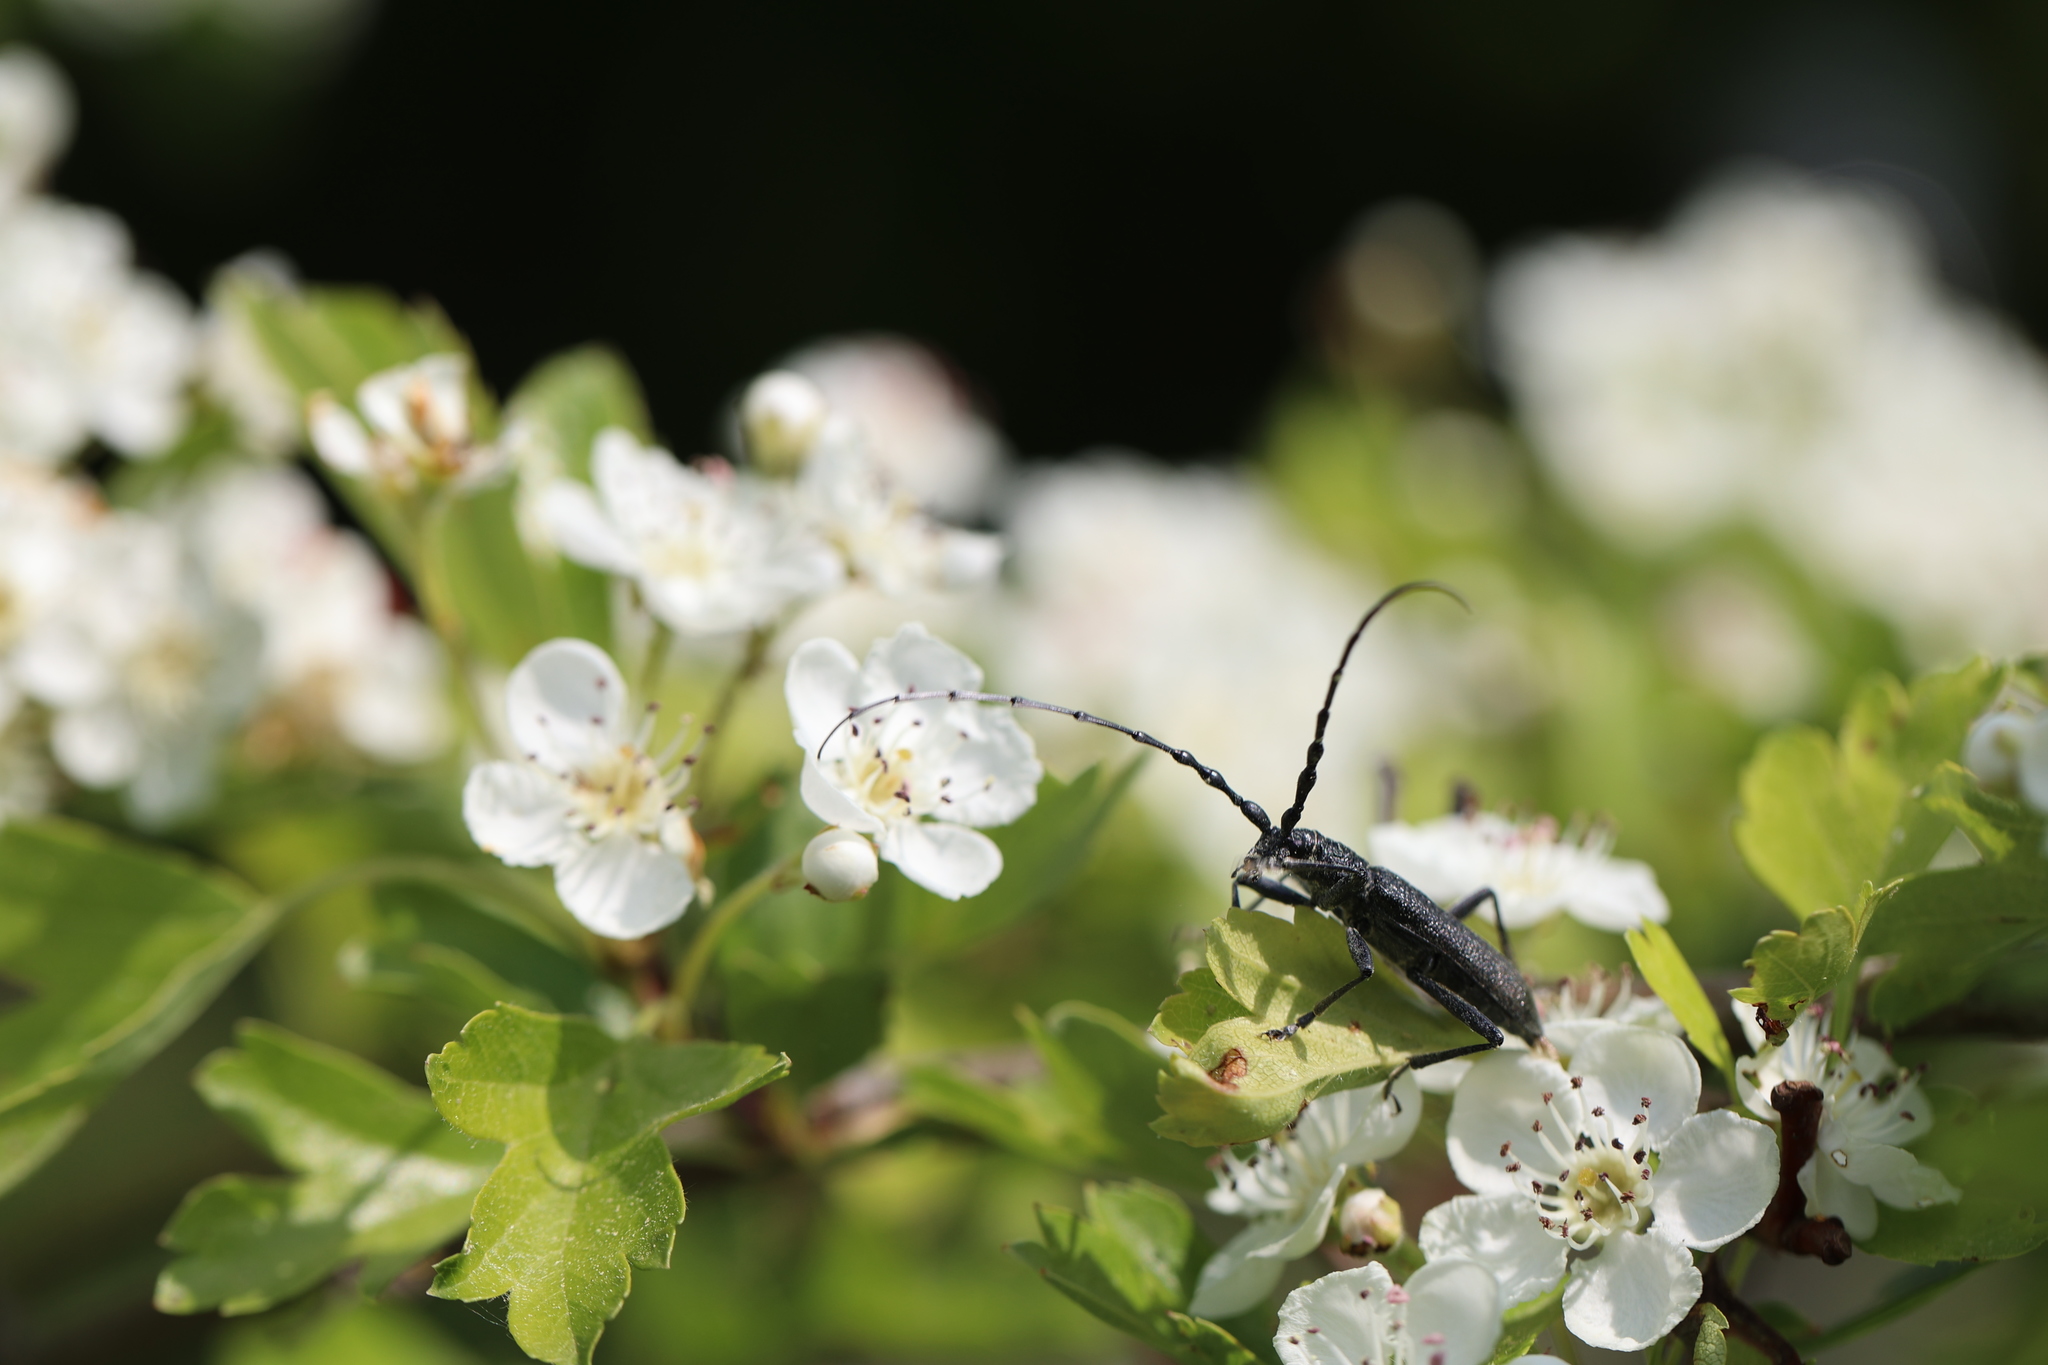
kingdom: Animalia
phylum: Arthropoda
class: Insecta
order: Coleoptera
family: Cerambycidae
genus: Cerambyx
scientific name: Cerambyx scopolii
